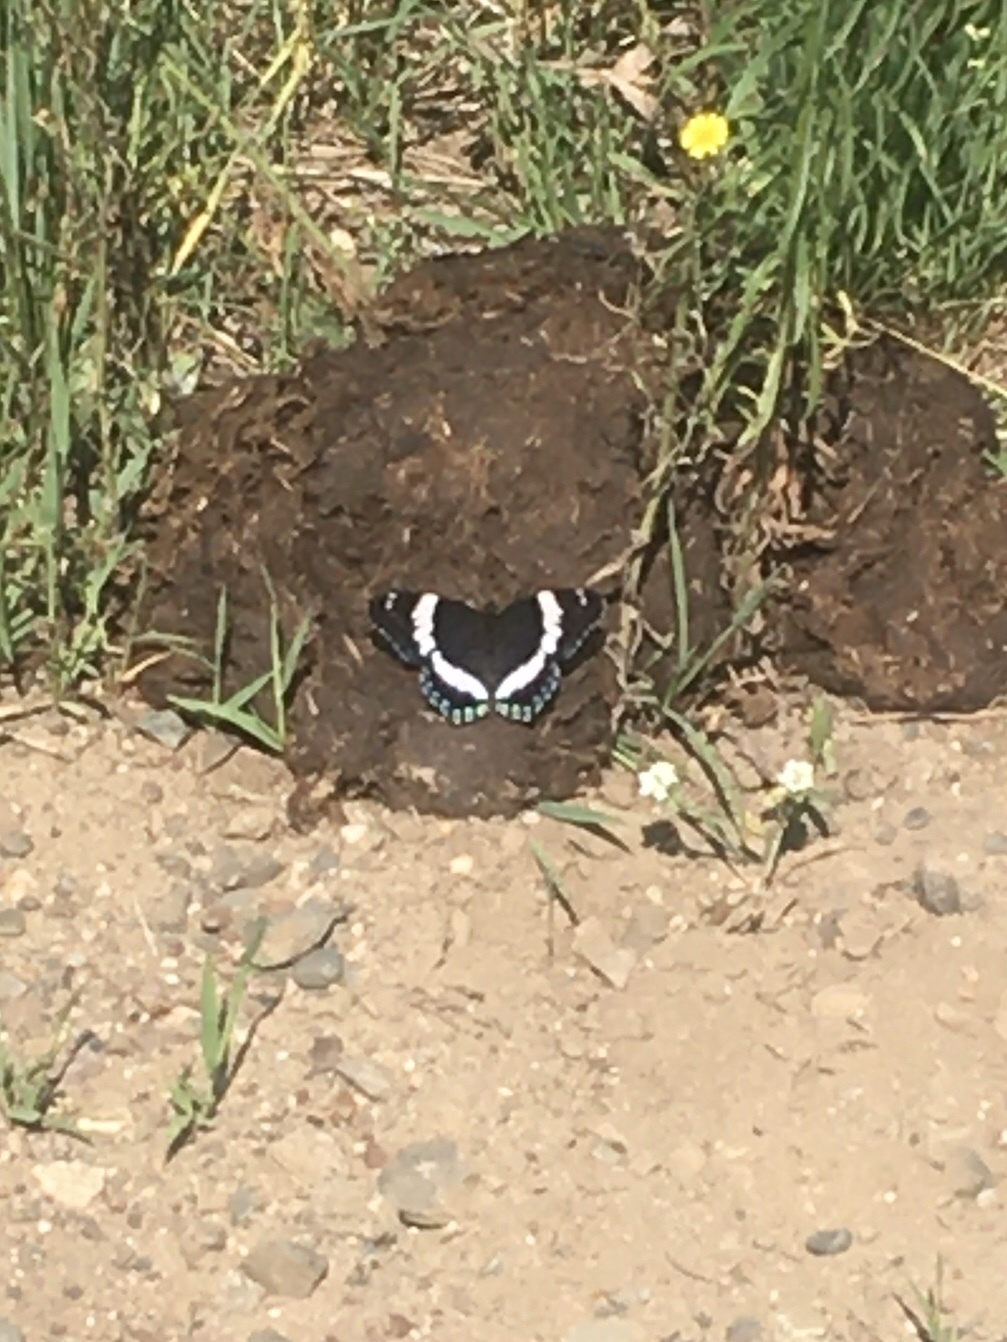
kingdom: Animalia
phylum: Arthropoda
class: Insecta
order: Lepidoptera
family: Nymphalidae
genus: Limenitis
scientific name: Limenitis arthemis
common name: Red-spotted admiral
